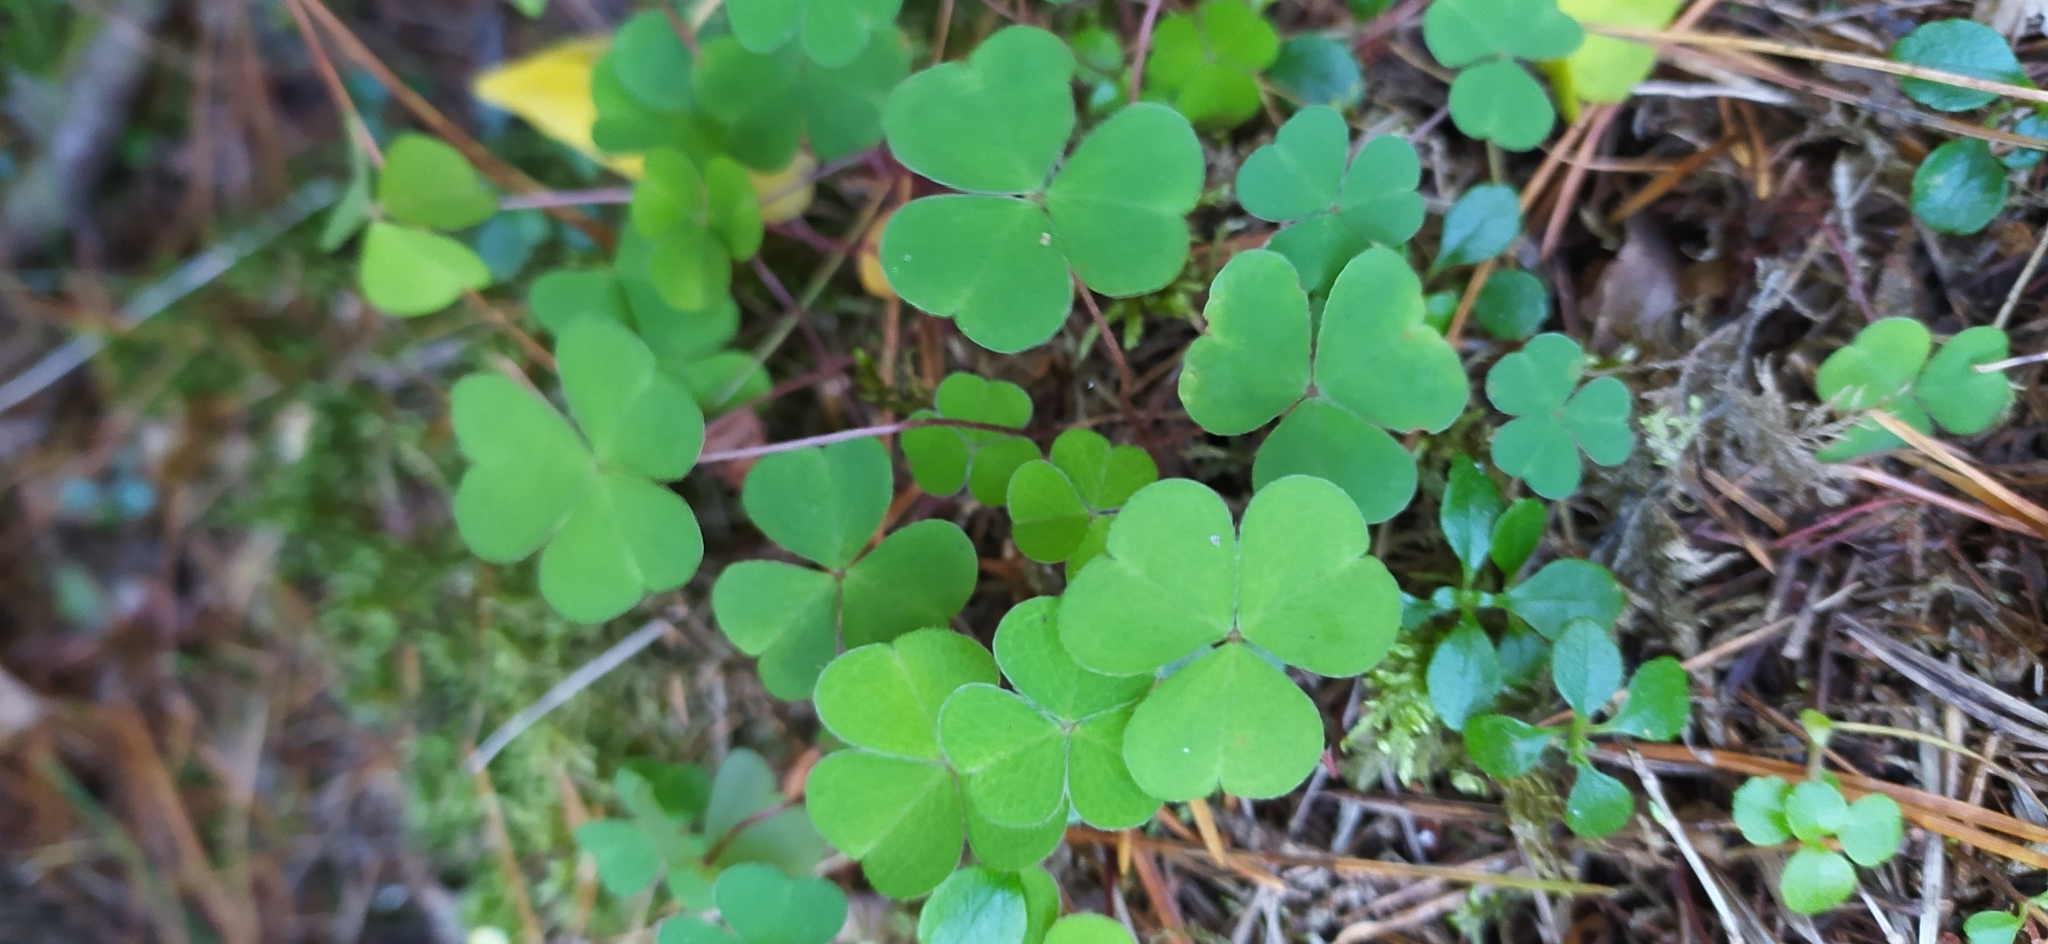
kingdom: Plantae
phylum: Tracheophyta
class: Magnoliopsida
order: Oxalidales
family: Oxalidaceae
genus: Oxalis
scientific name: Oxalis acetosella
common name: Wood-sorrel
